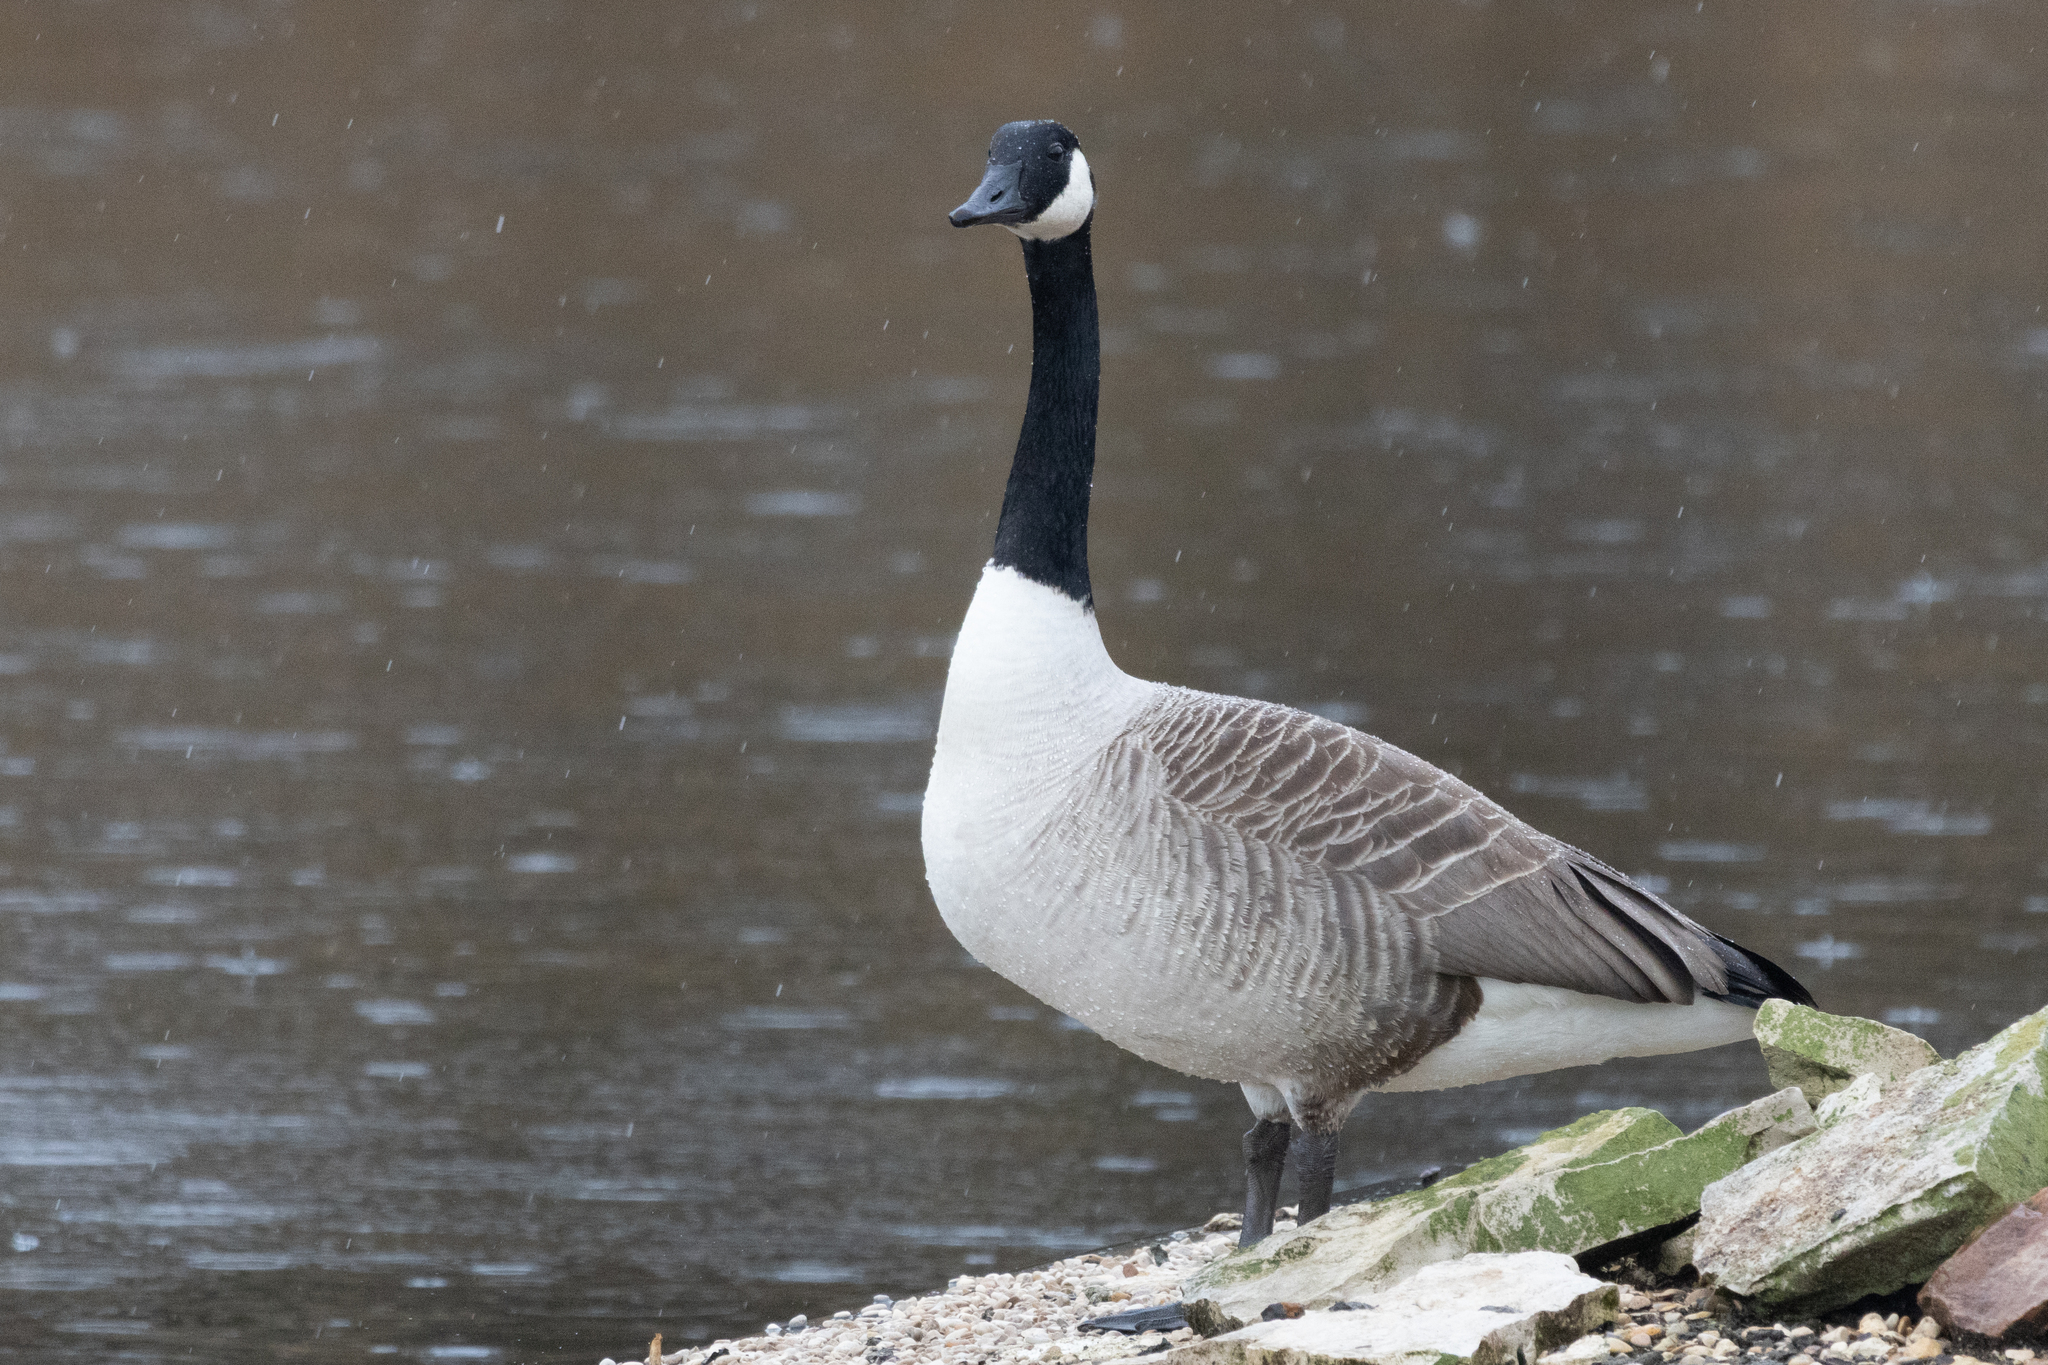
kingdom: Animalia
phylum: Chordata
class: Aves
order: Anseriformes
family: Anatidae
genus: Branta
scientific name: Branta canadensis
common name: Canada goose
